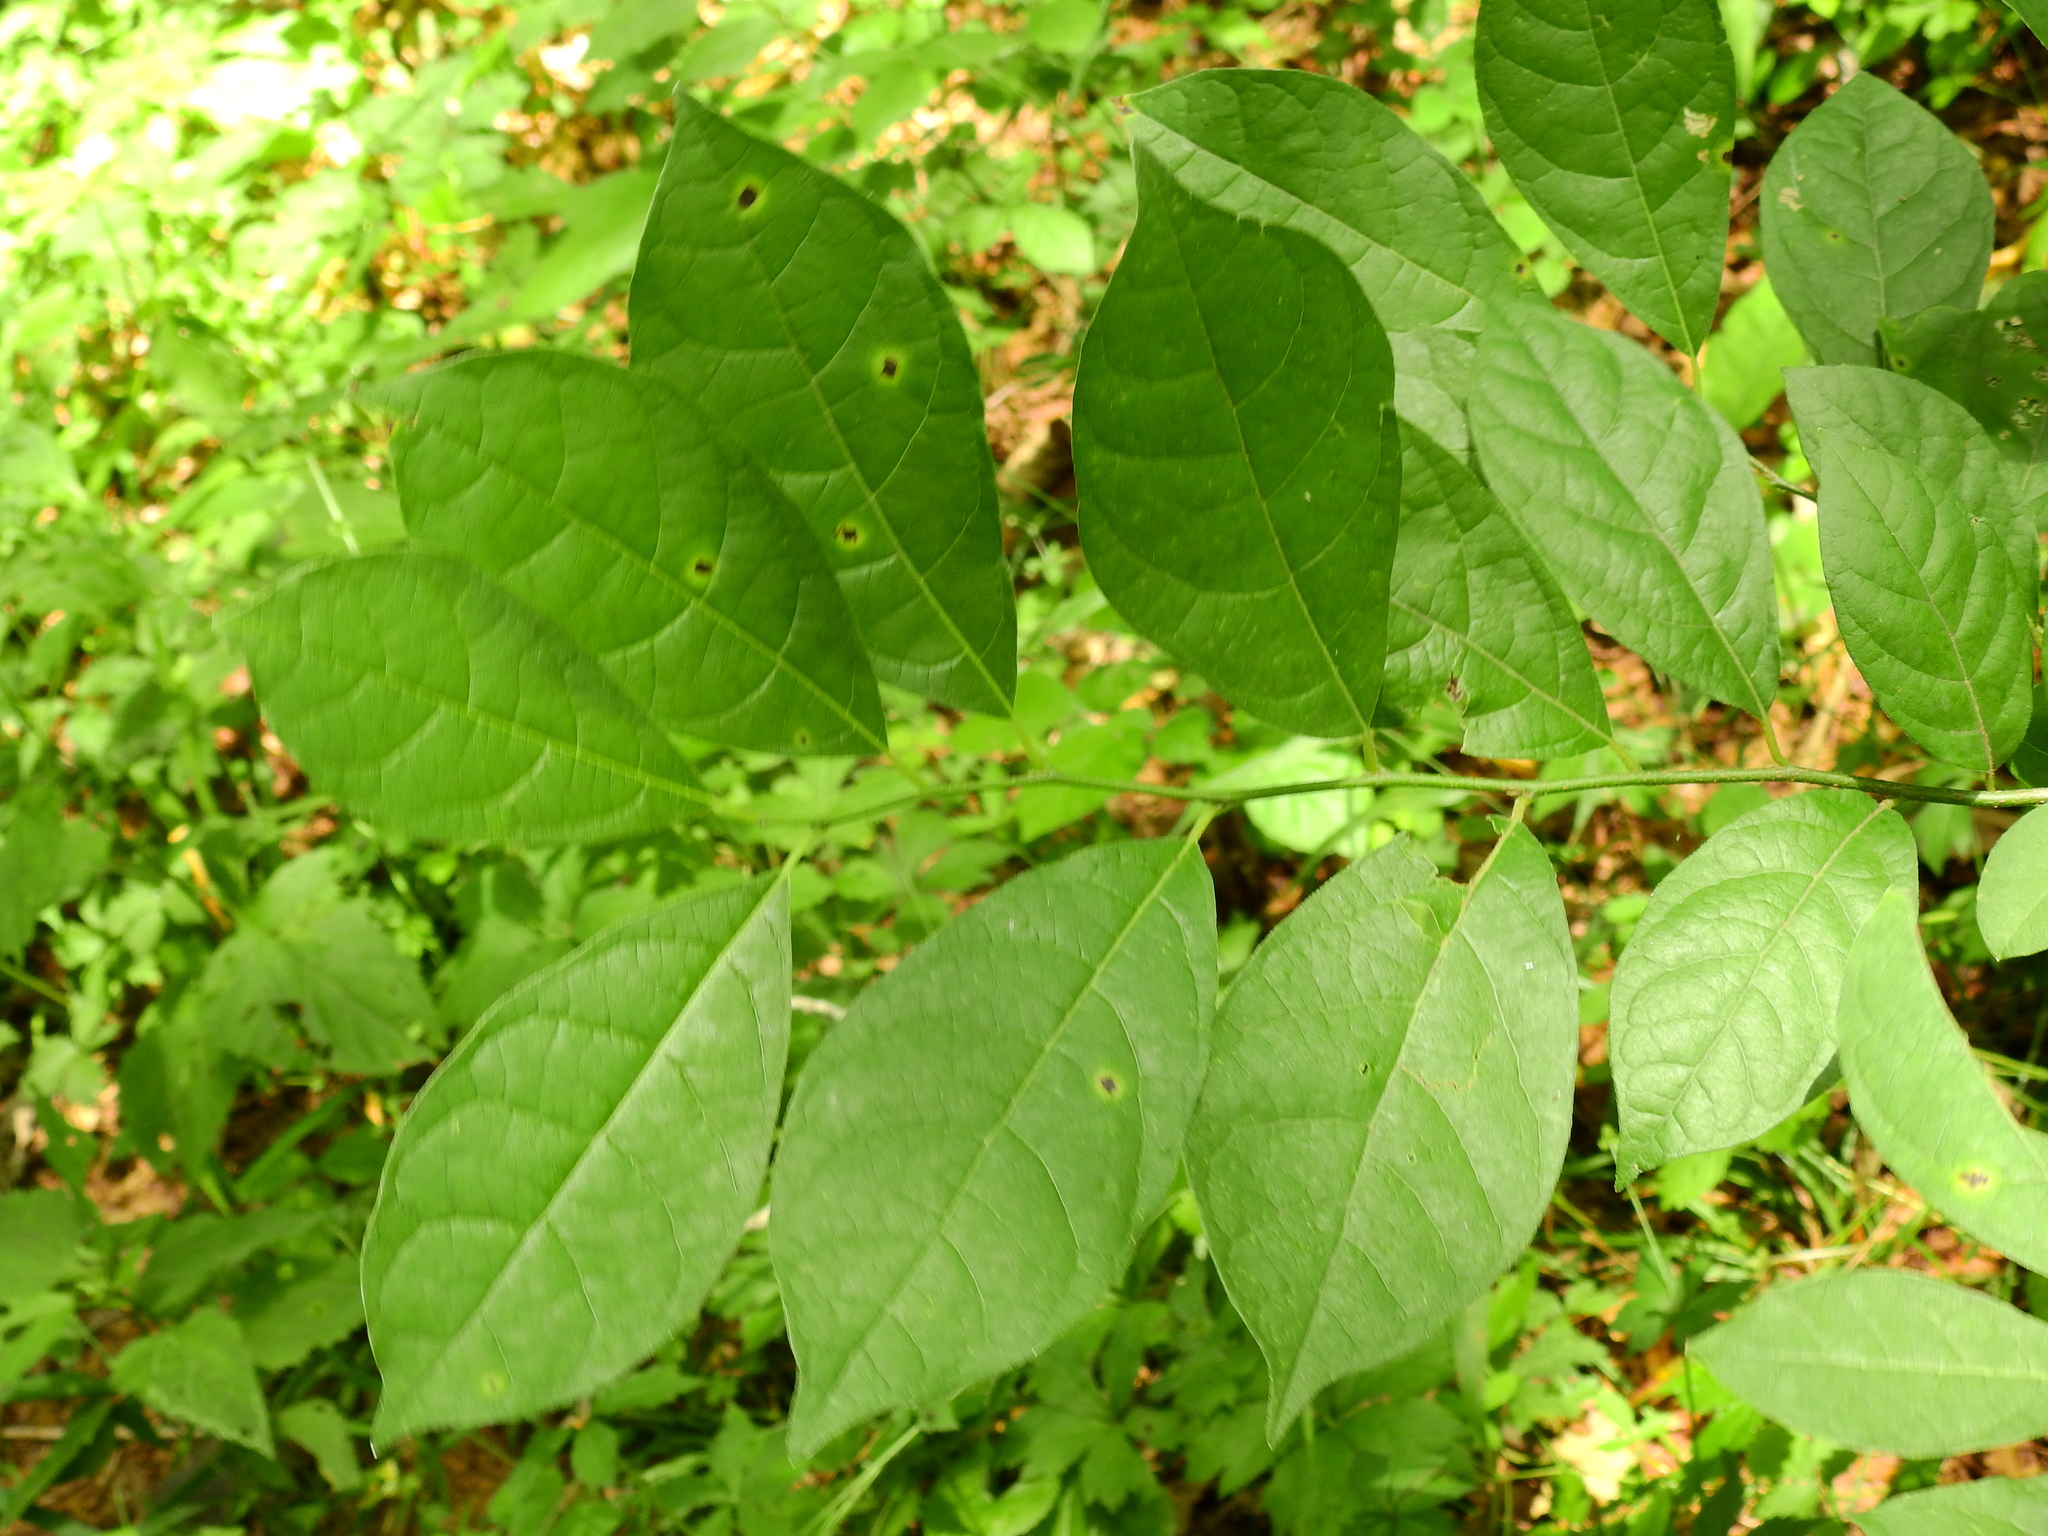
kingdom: Plantae
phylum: Tracheophyta
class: Magnoliopsida
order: Laurales
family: Lauraceae
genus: Lindera
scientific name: Lindera benzoin
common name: Spicebush
